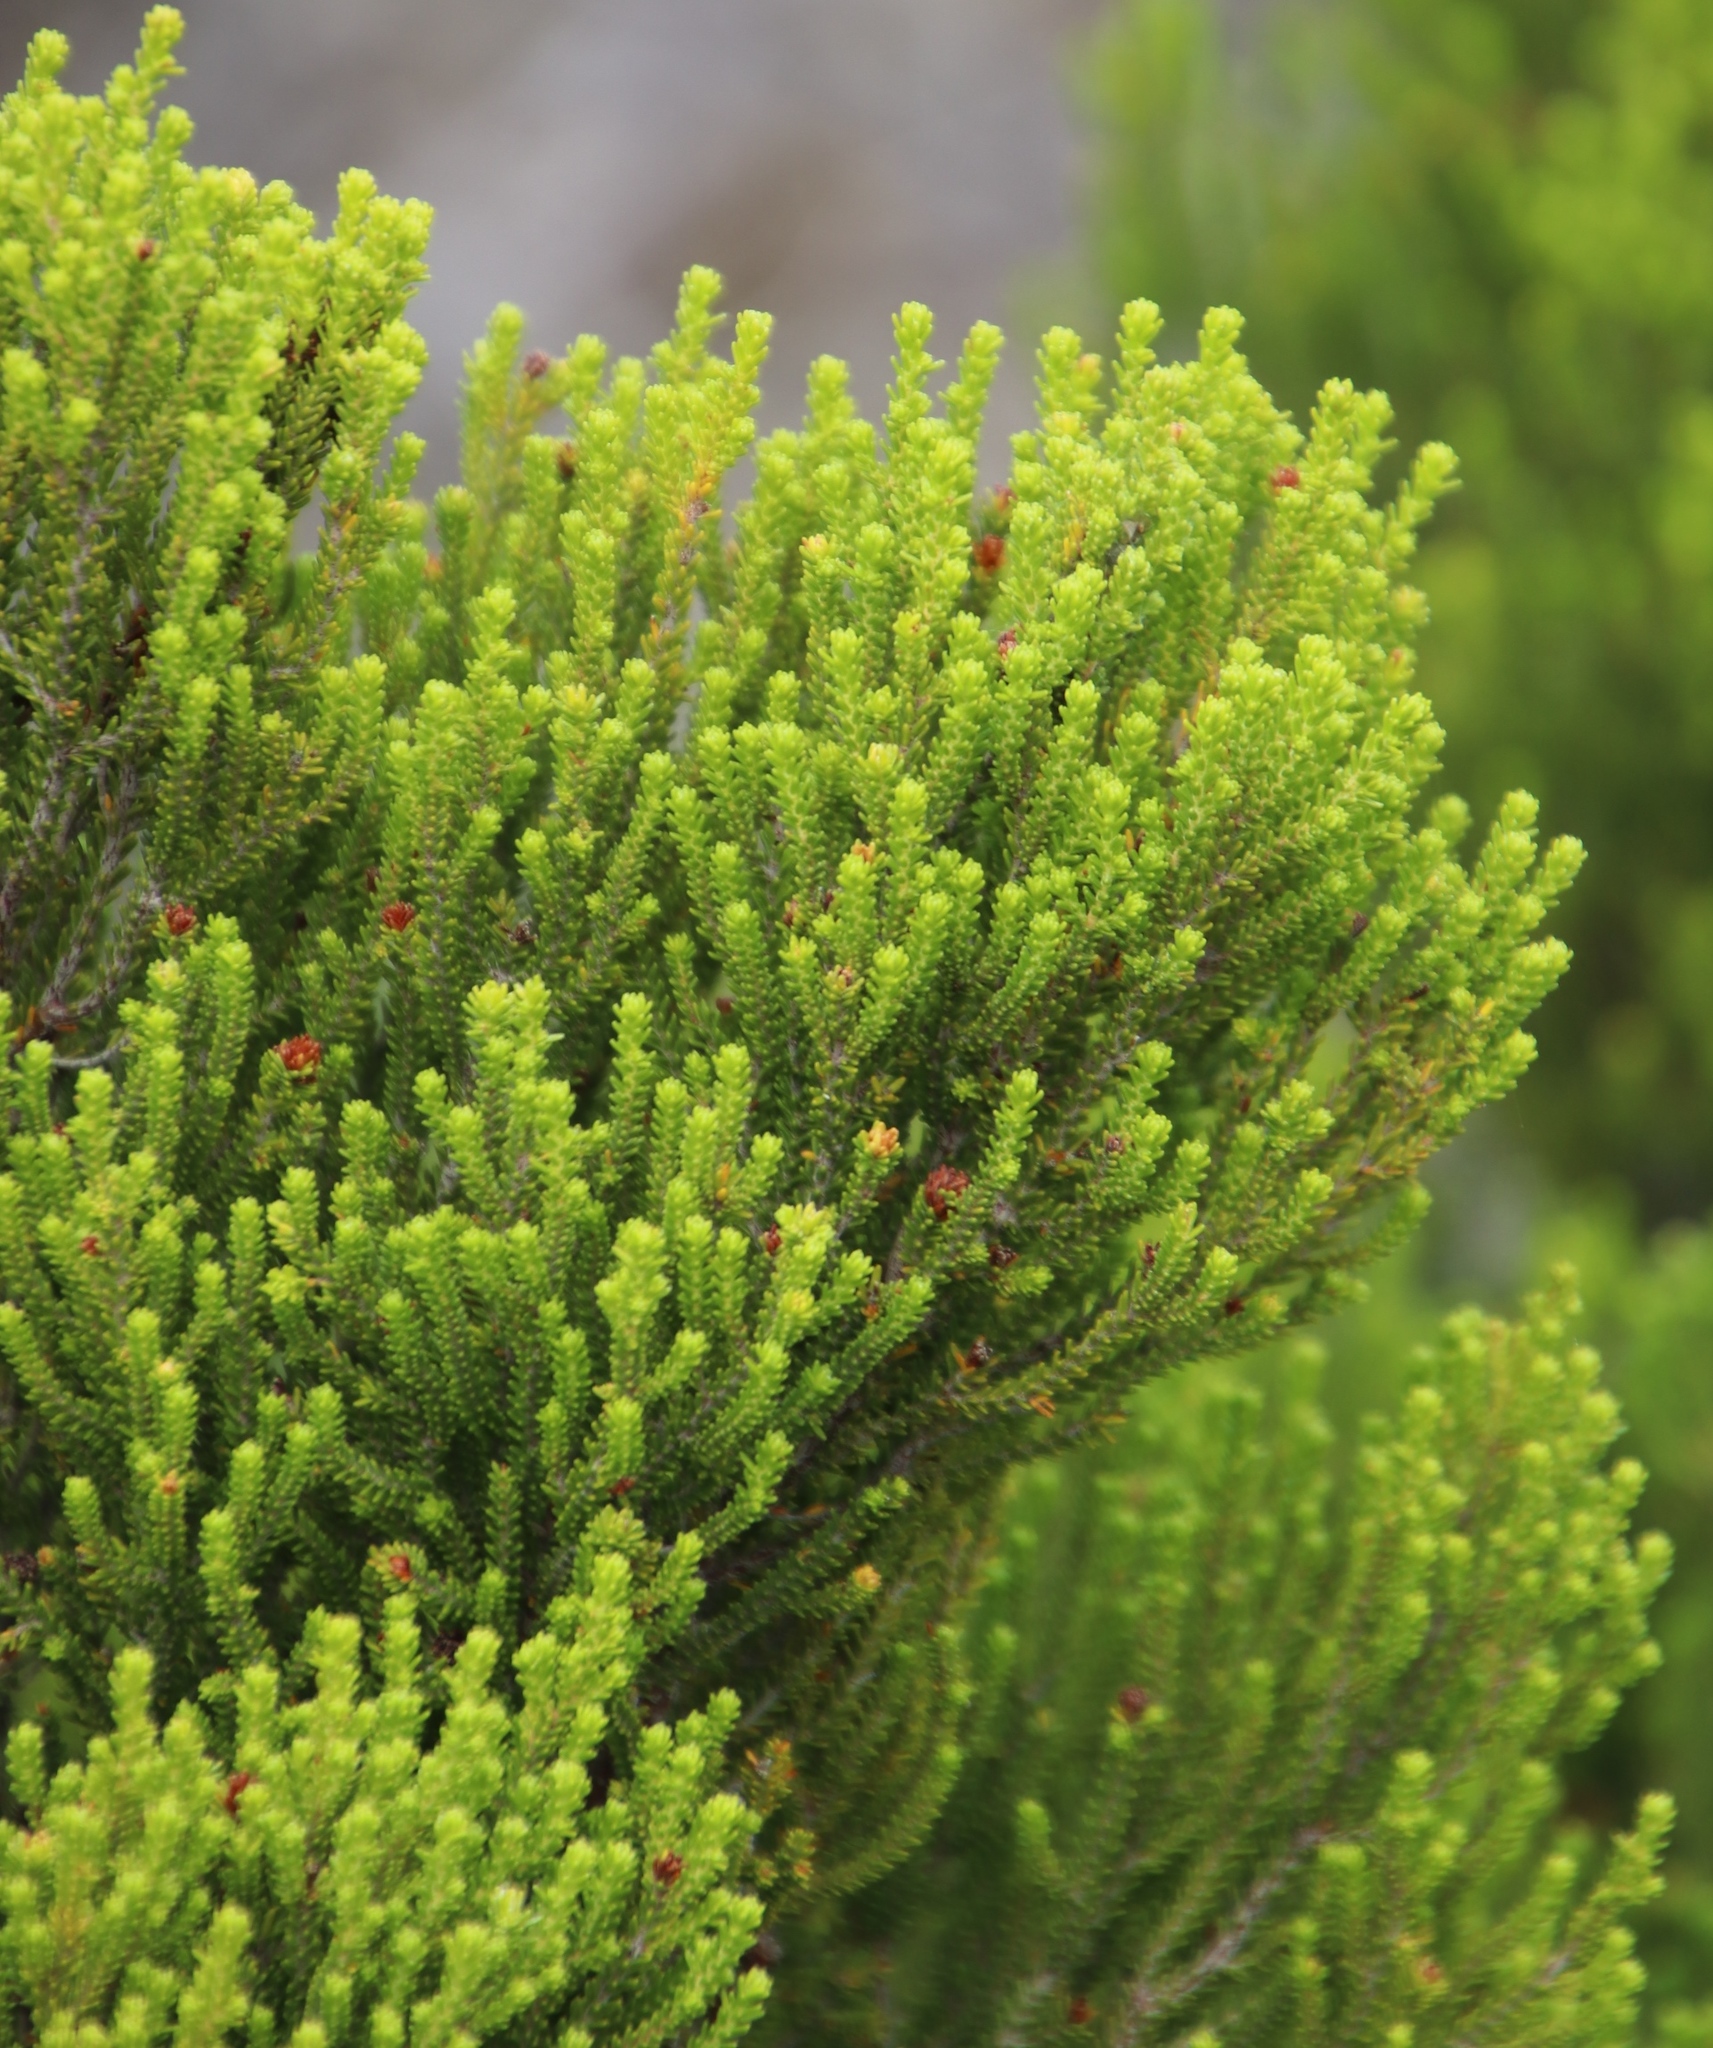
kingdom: Plantae
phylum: Tracheophyta
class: Magnoliopsida
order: Ericales
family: Ericaceae
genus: Erica
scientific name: Erica tristis
